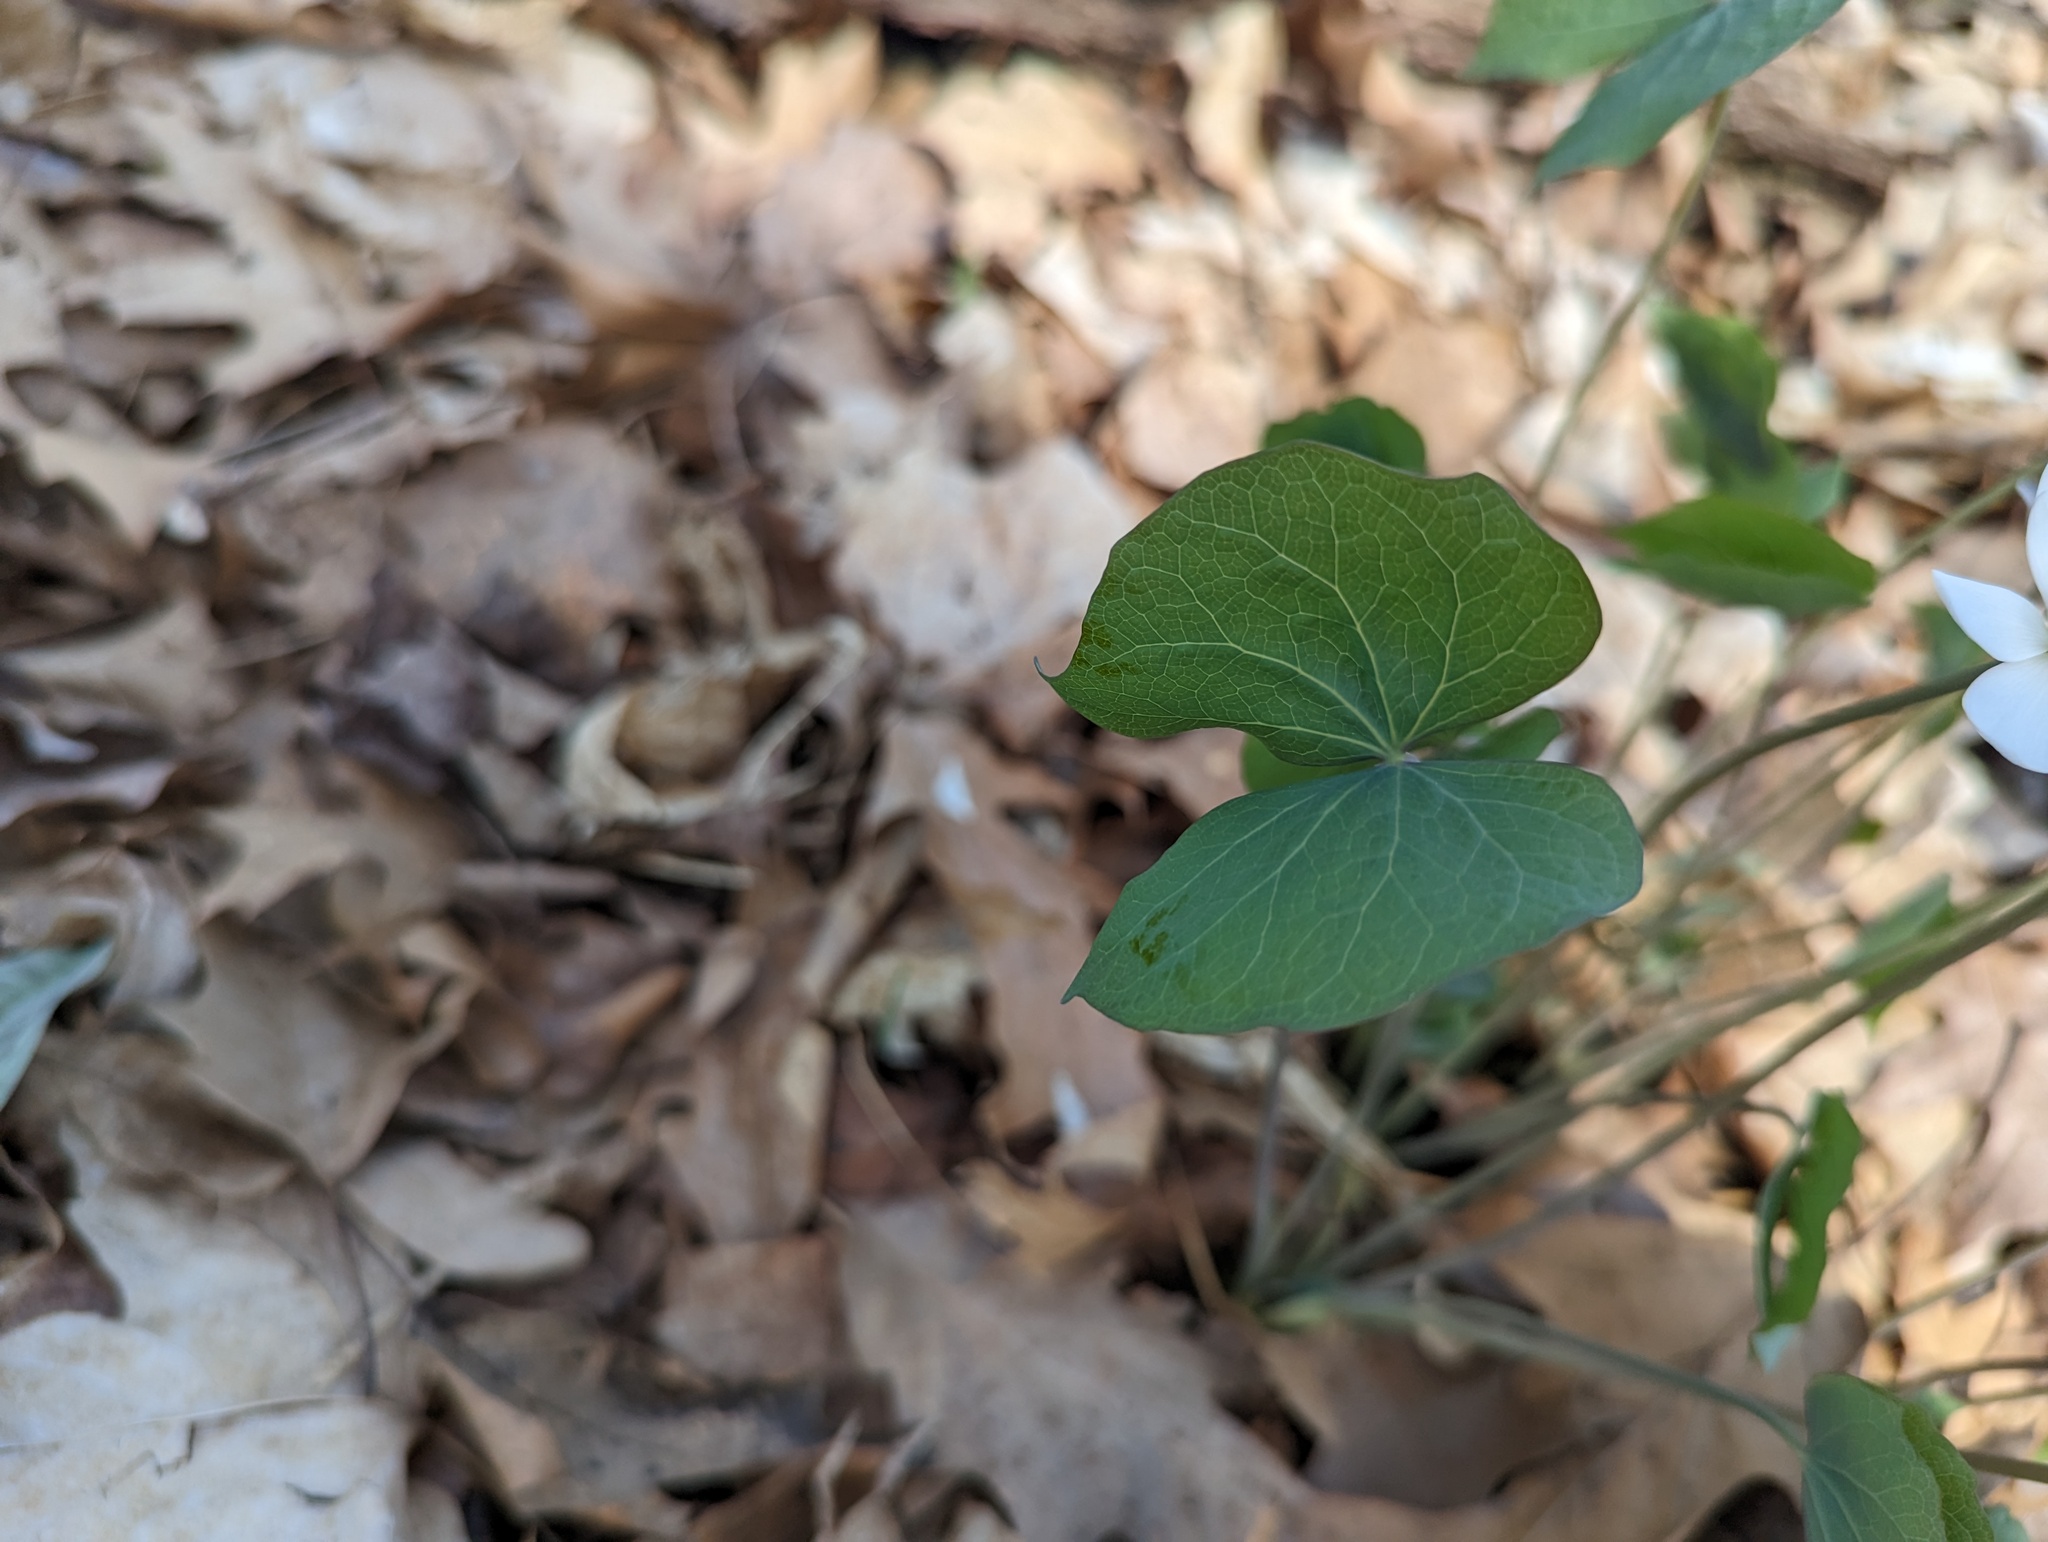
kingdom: Plantae
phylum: Tracheophyta
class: Magnoliopsida
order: Ranunculales
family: Berberidaceae
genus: Jeffersonia
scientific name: Jeffersonia diphylla
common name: Rheumatism-root
